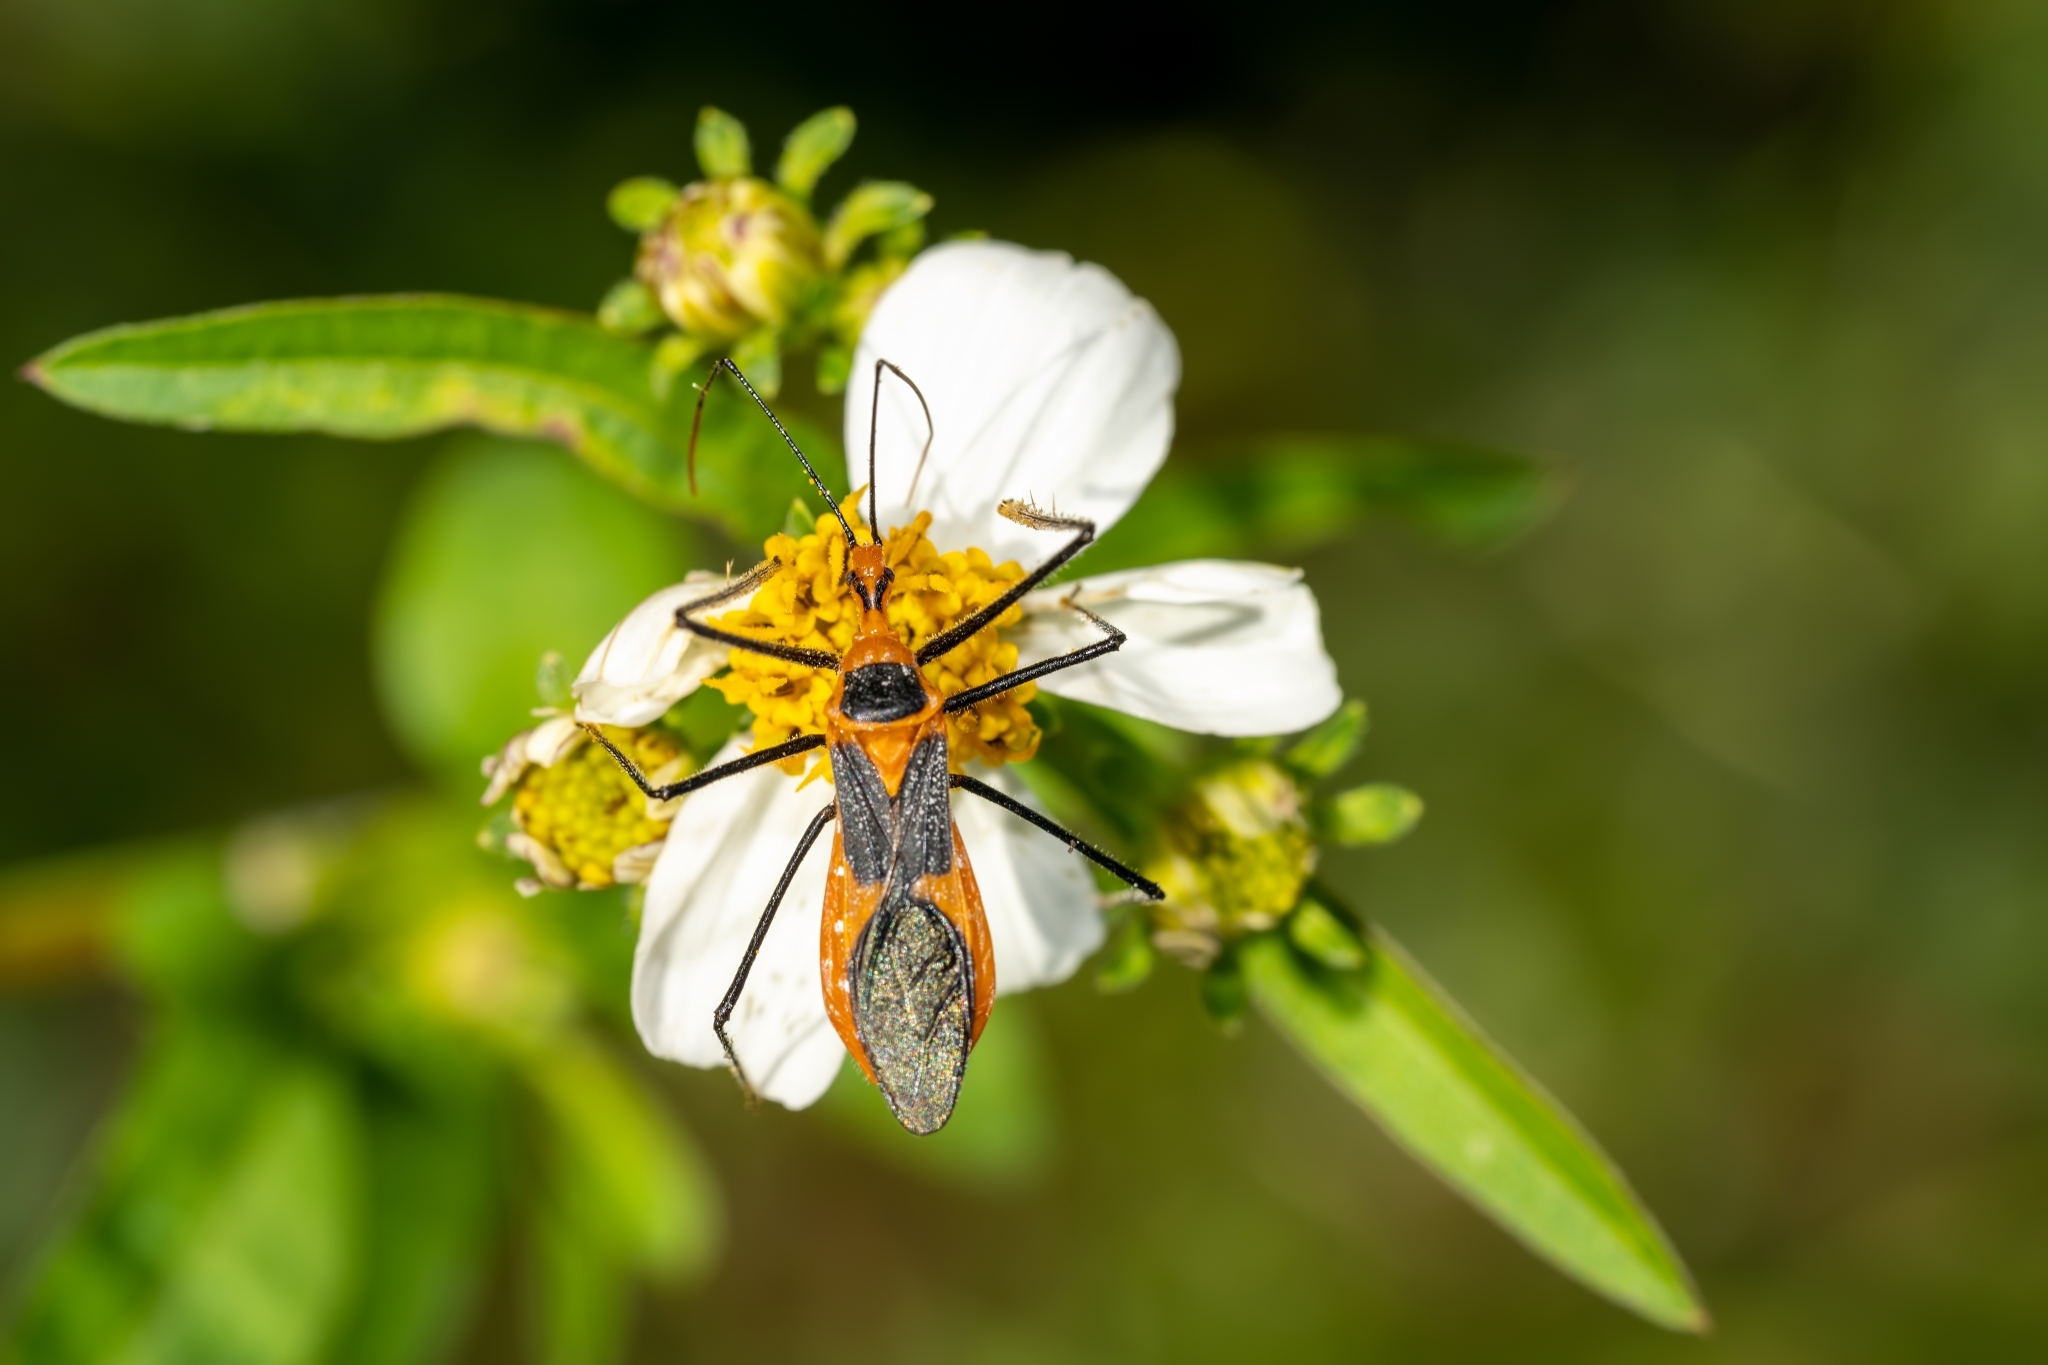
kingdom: Animalia
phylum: Arthropoda
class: Insecta
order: Hemiptera
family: Reduviidae
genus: Zelus
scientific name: Zelus longipes
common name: Milkweed assassin bug
